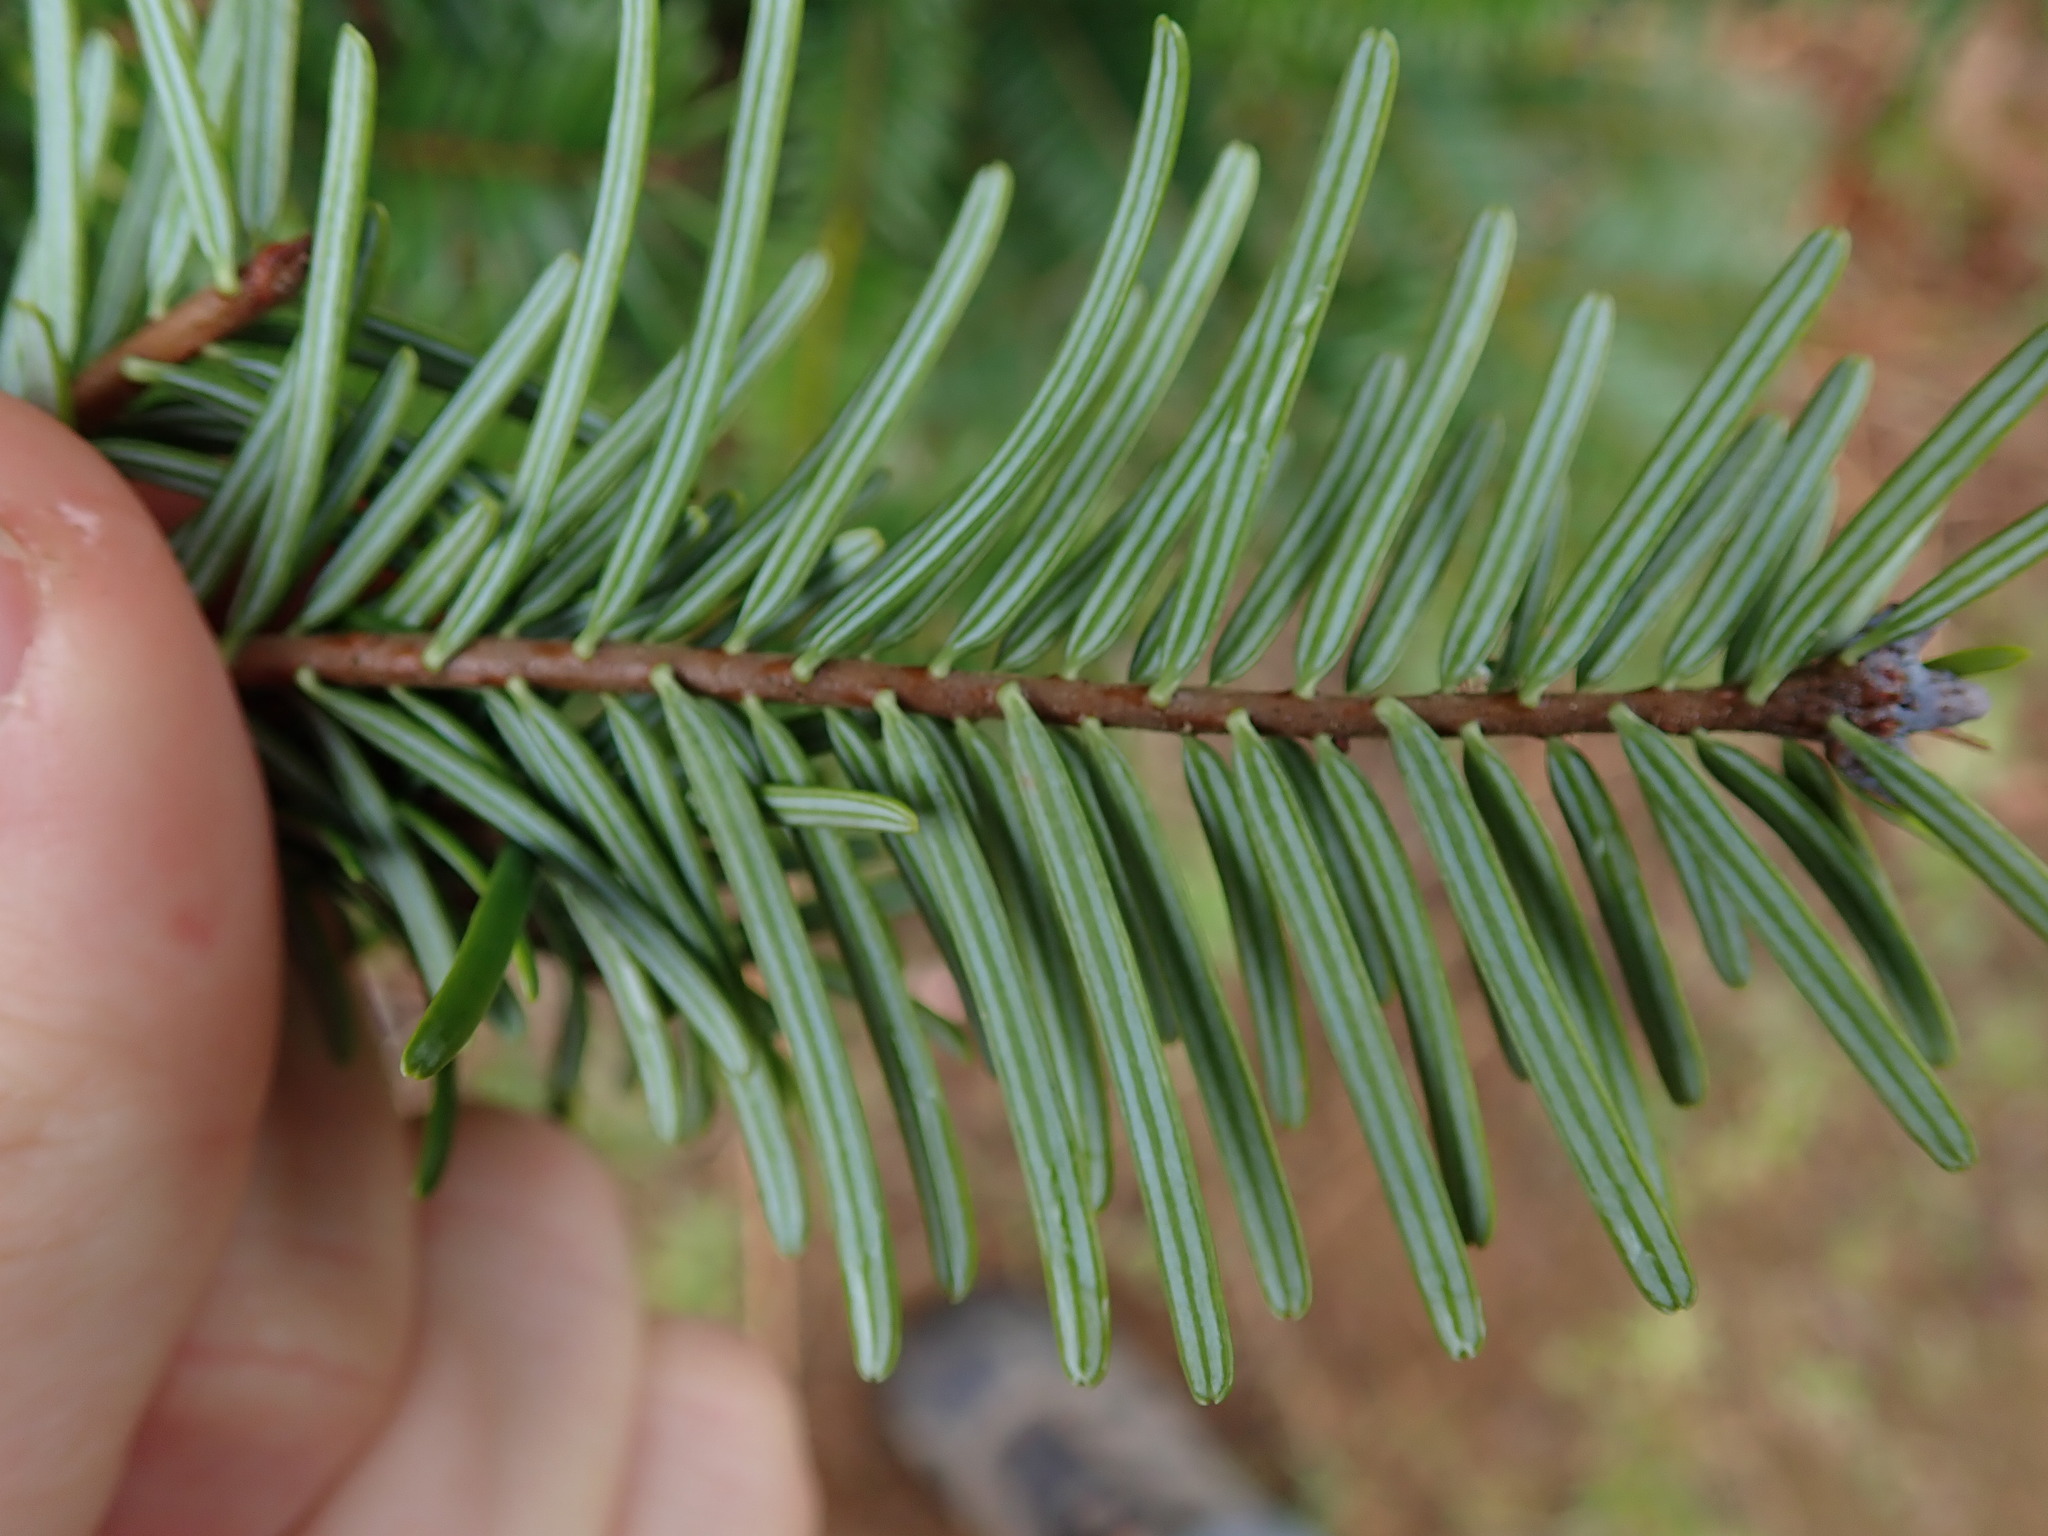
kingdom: Plantae
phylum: Tracheophyta
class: Pinopsida
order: Pinales
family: Pinaceae
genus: Abies
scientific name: Abies grandis
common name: Giant fir
